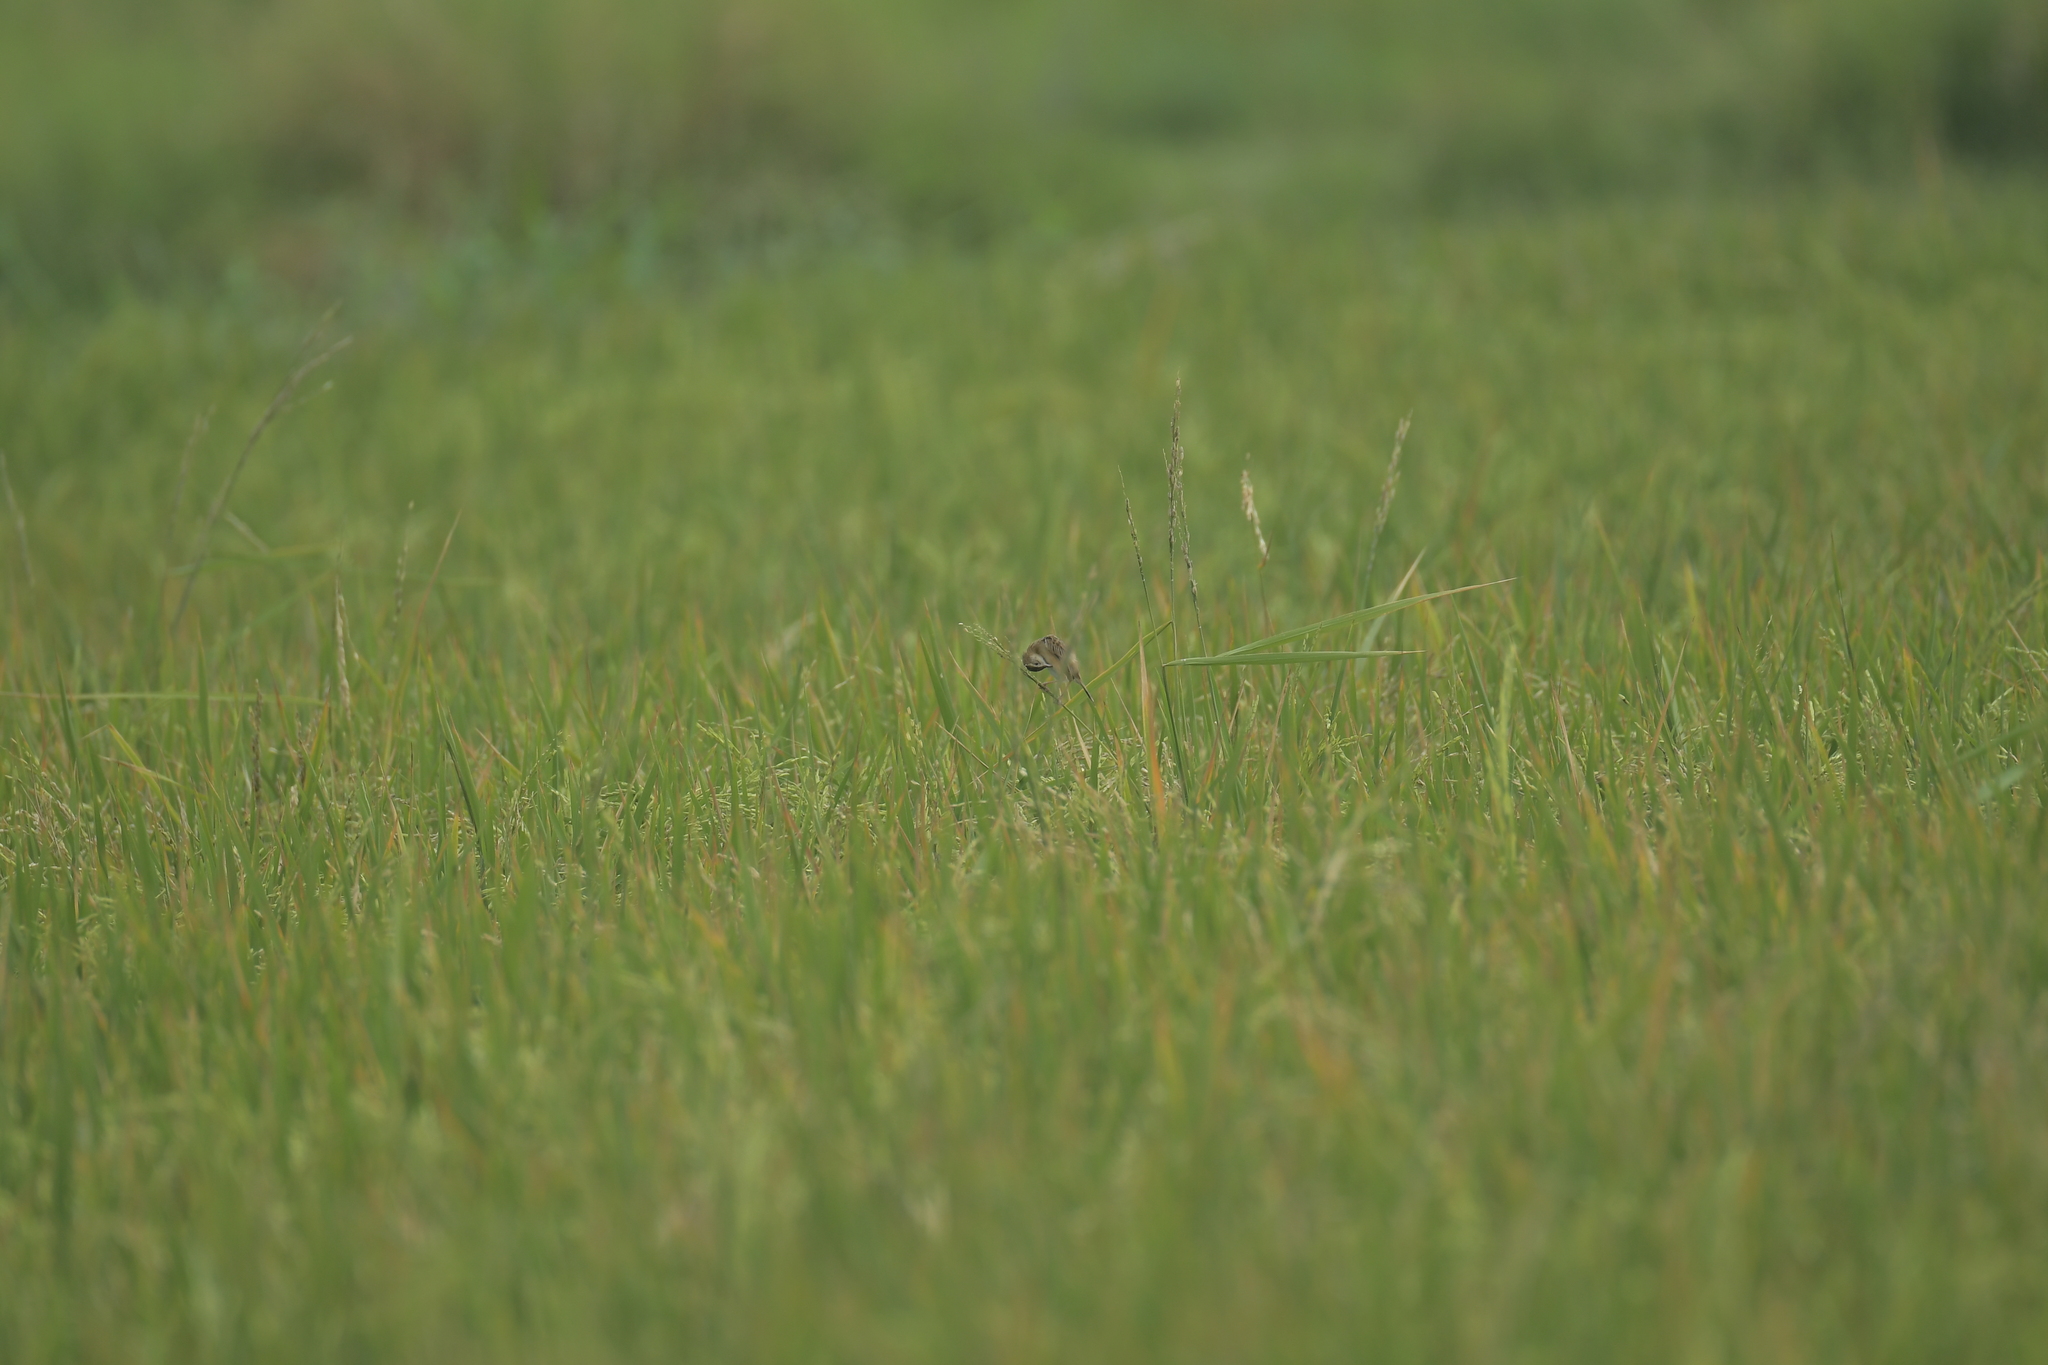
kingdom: Animalia
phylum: Chordata
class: Aves
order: Passeriformes
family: Cisticolidae
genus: Cisticola
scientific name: Cisticola juncidis
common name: Zitting cisticola
